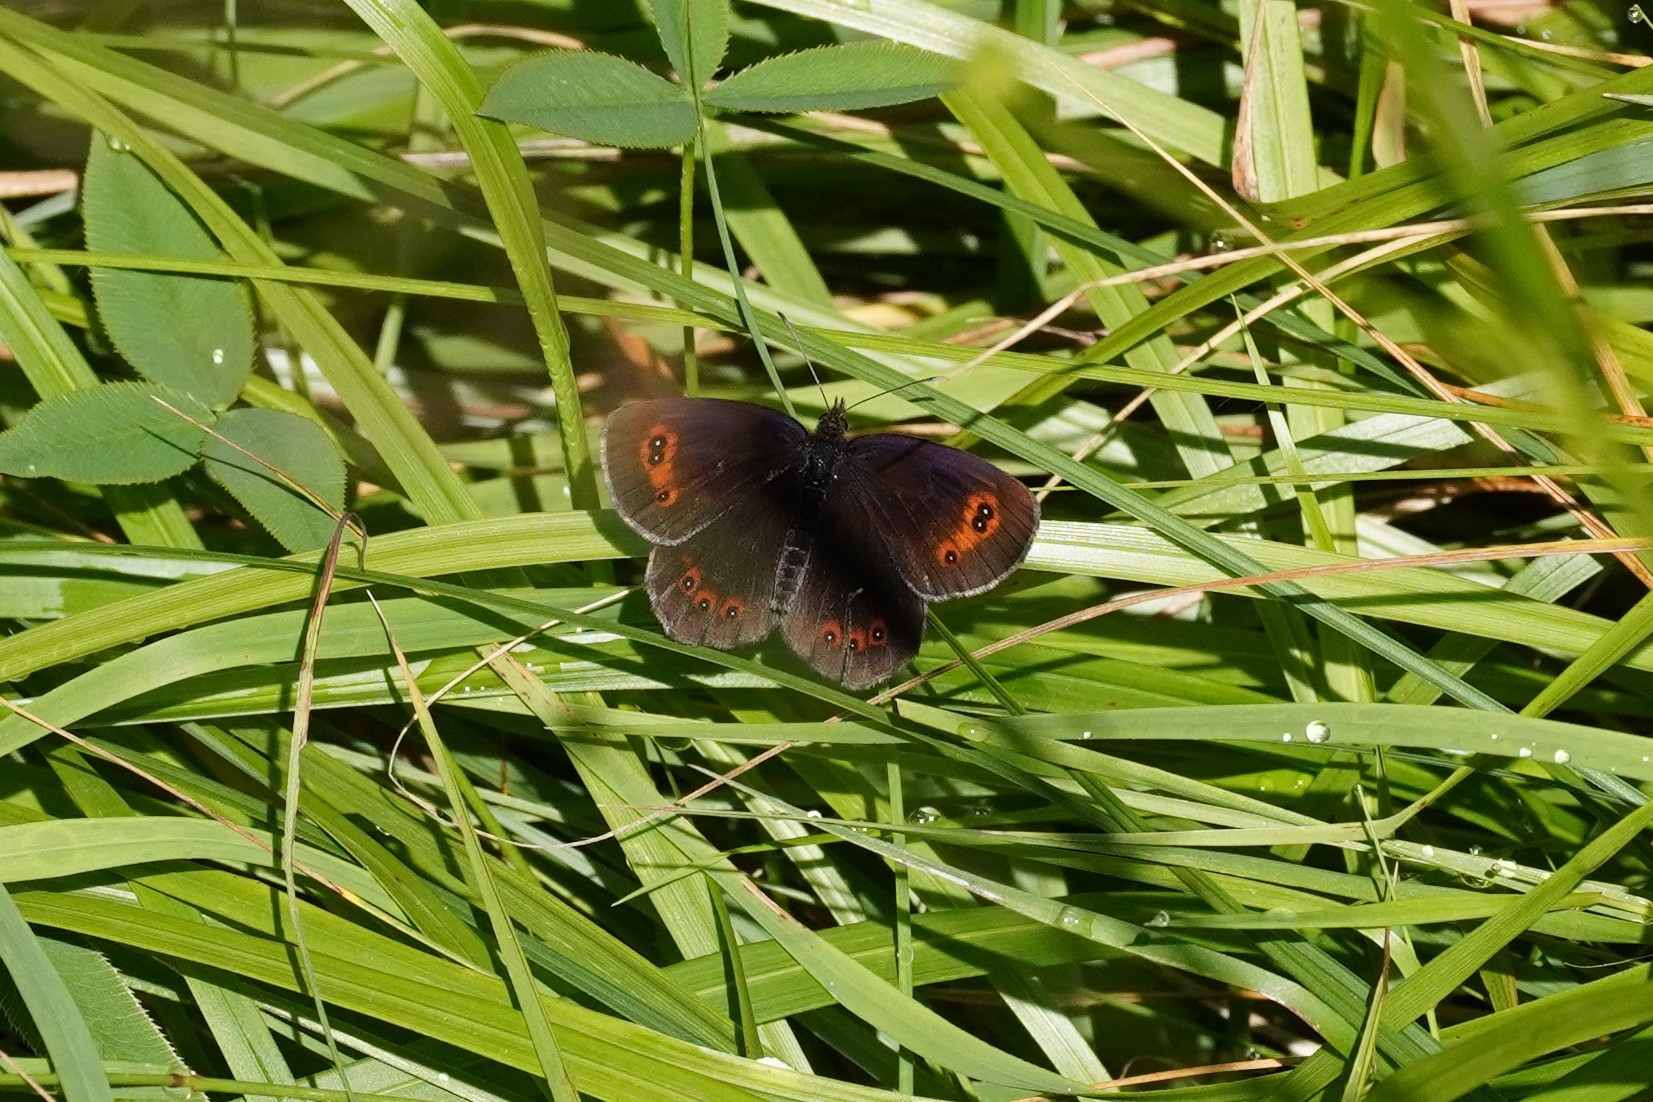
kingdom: Animalia
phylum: Arthropoda
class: Insecta
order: Lepidoptera
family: Nymphalidae
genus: Erebia
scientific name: Erebia aethiops
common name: Scotch argus
